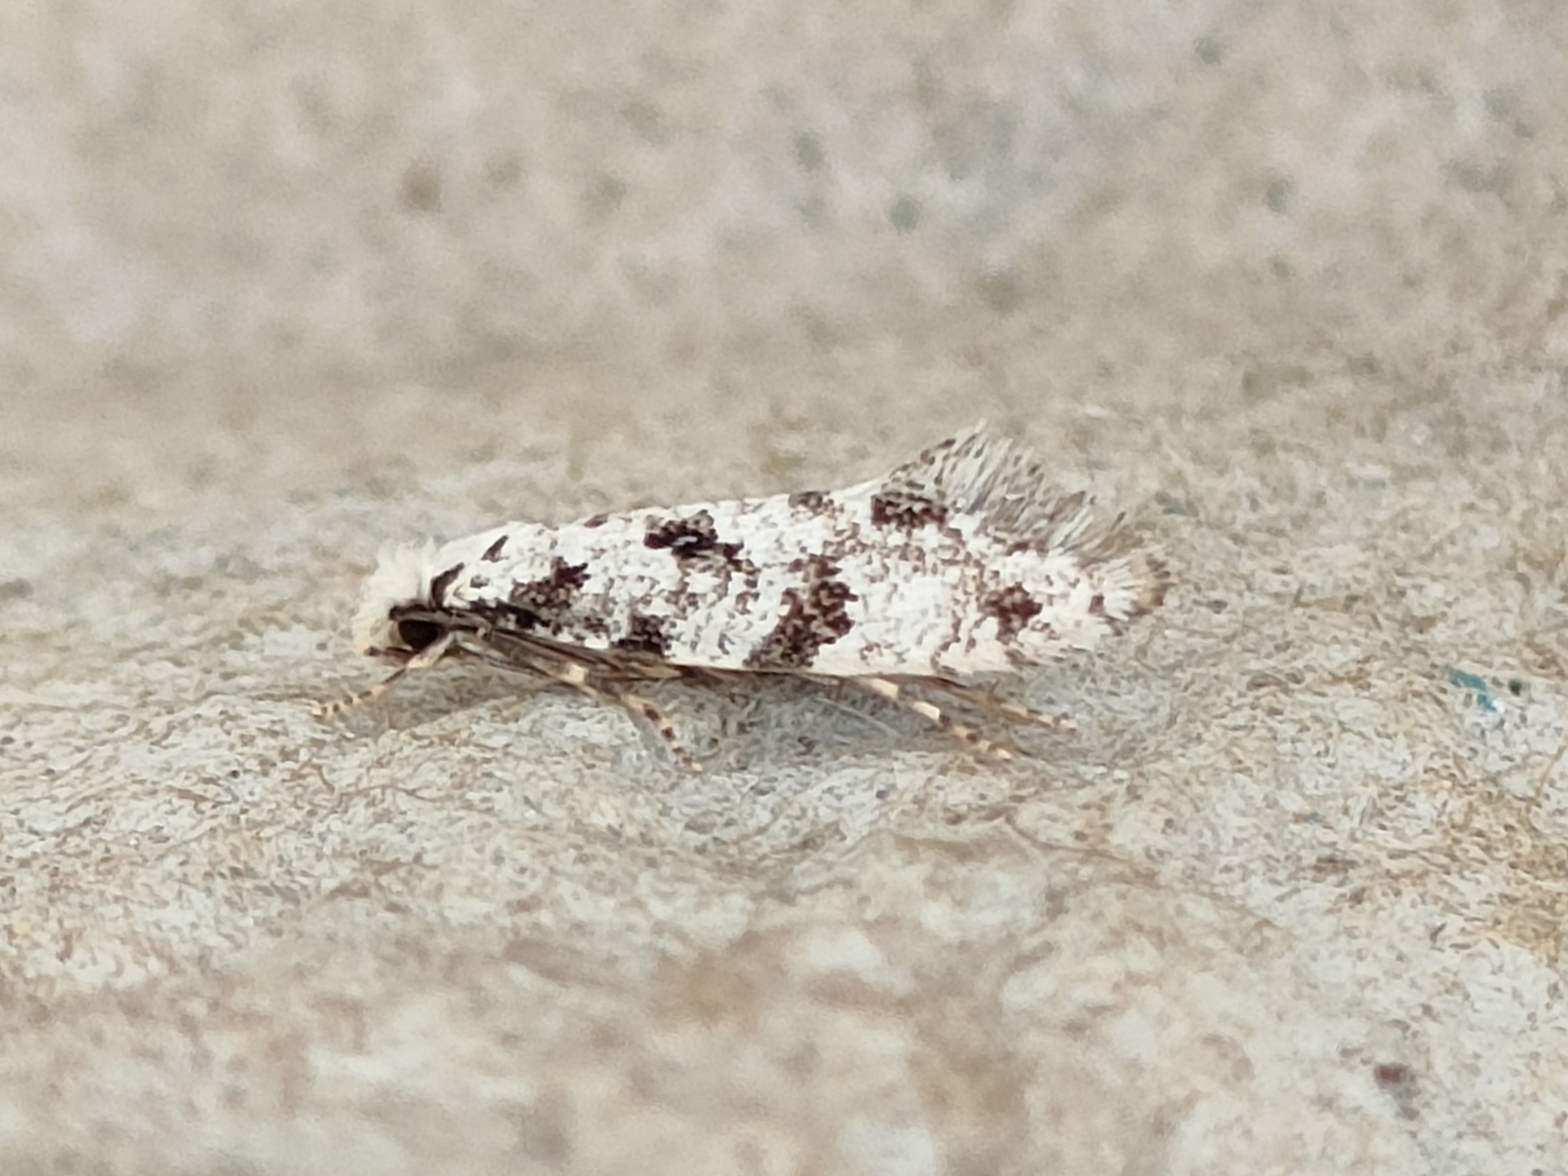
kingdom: Animalia
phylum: Arthropoda
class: Insecta
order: Lepidoptera
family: Tineidae
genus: Nemapogon
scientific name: Nemapogon nevadella
